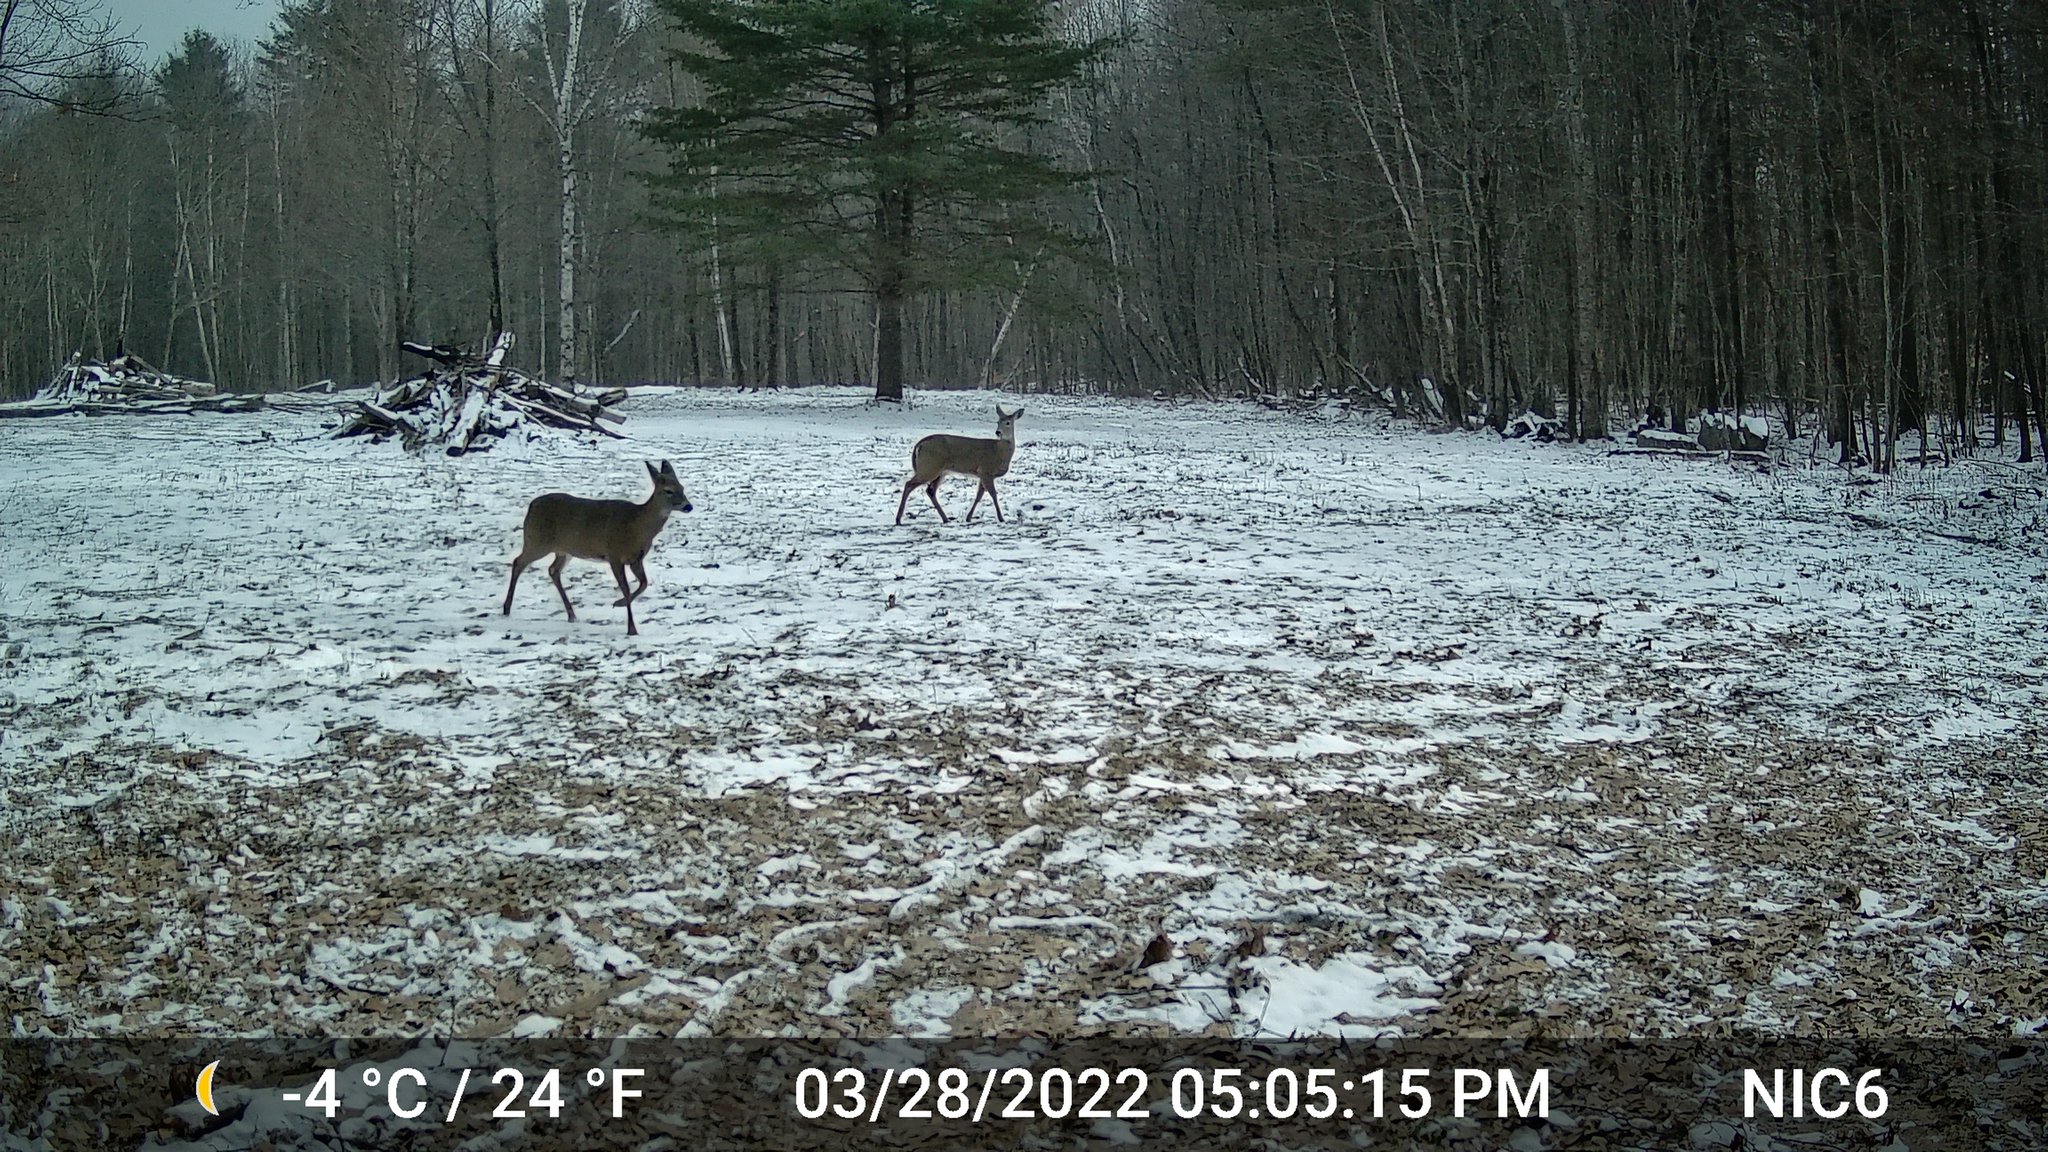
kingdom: Animalia
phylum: Chordata
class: Mammalia
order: Artiodactyla
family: Cervidae
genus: Odocoileus
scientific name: Odocoileus virginianus
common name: White-tailed deer
